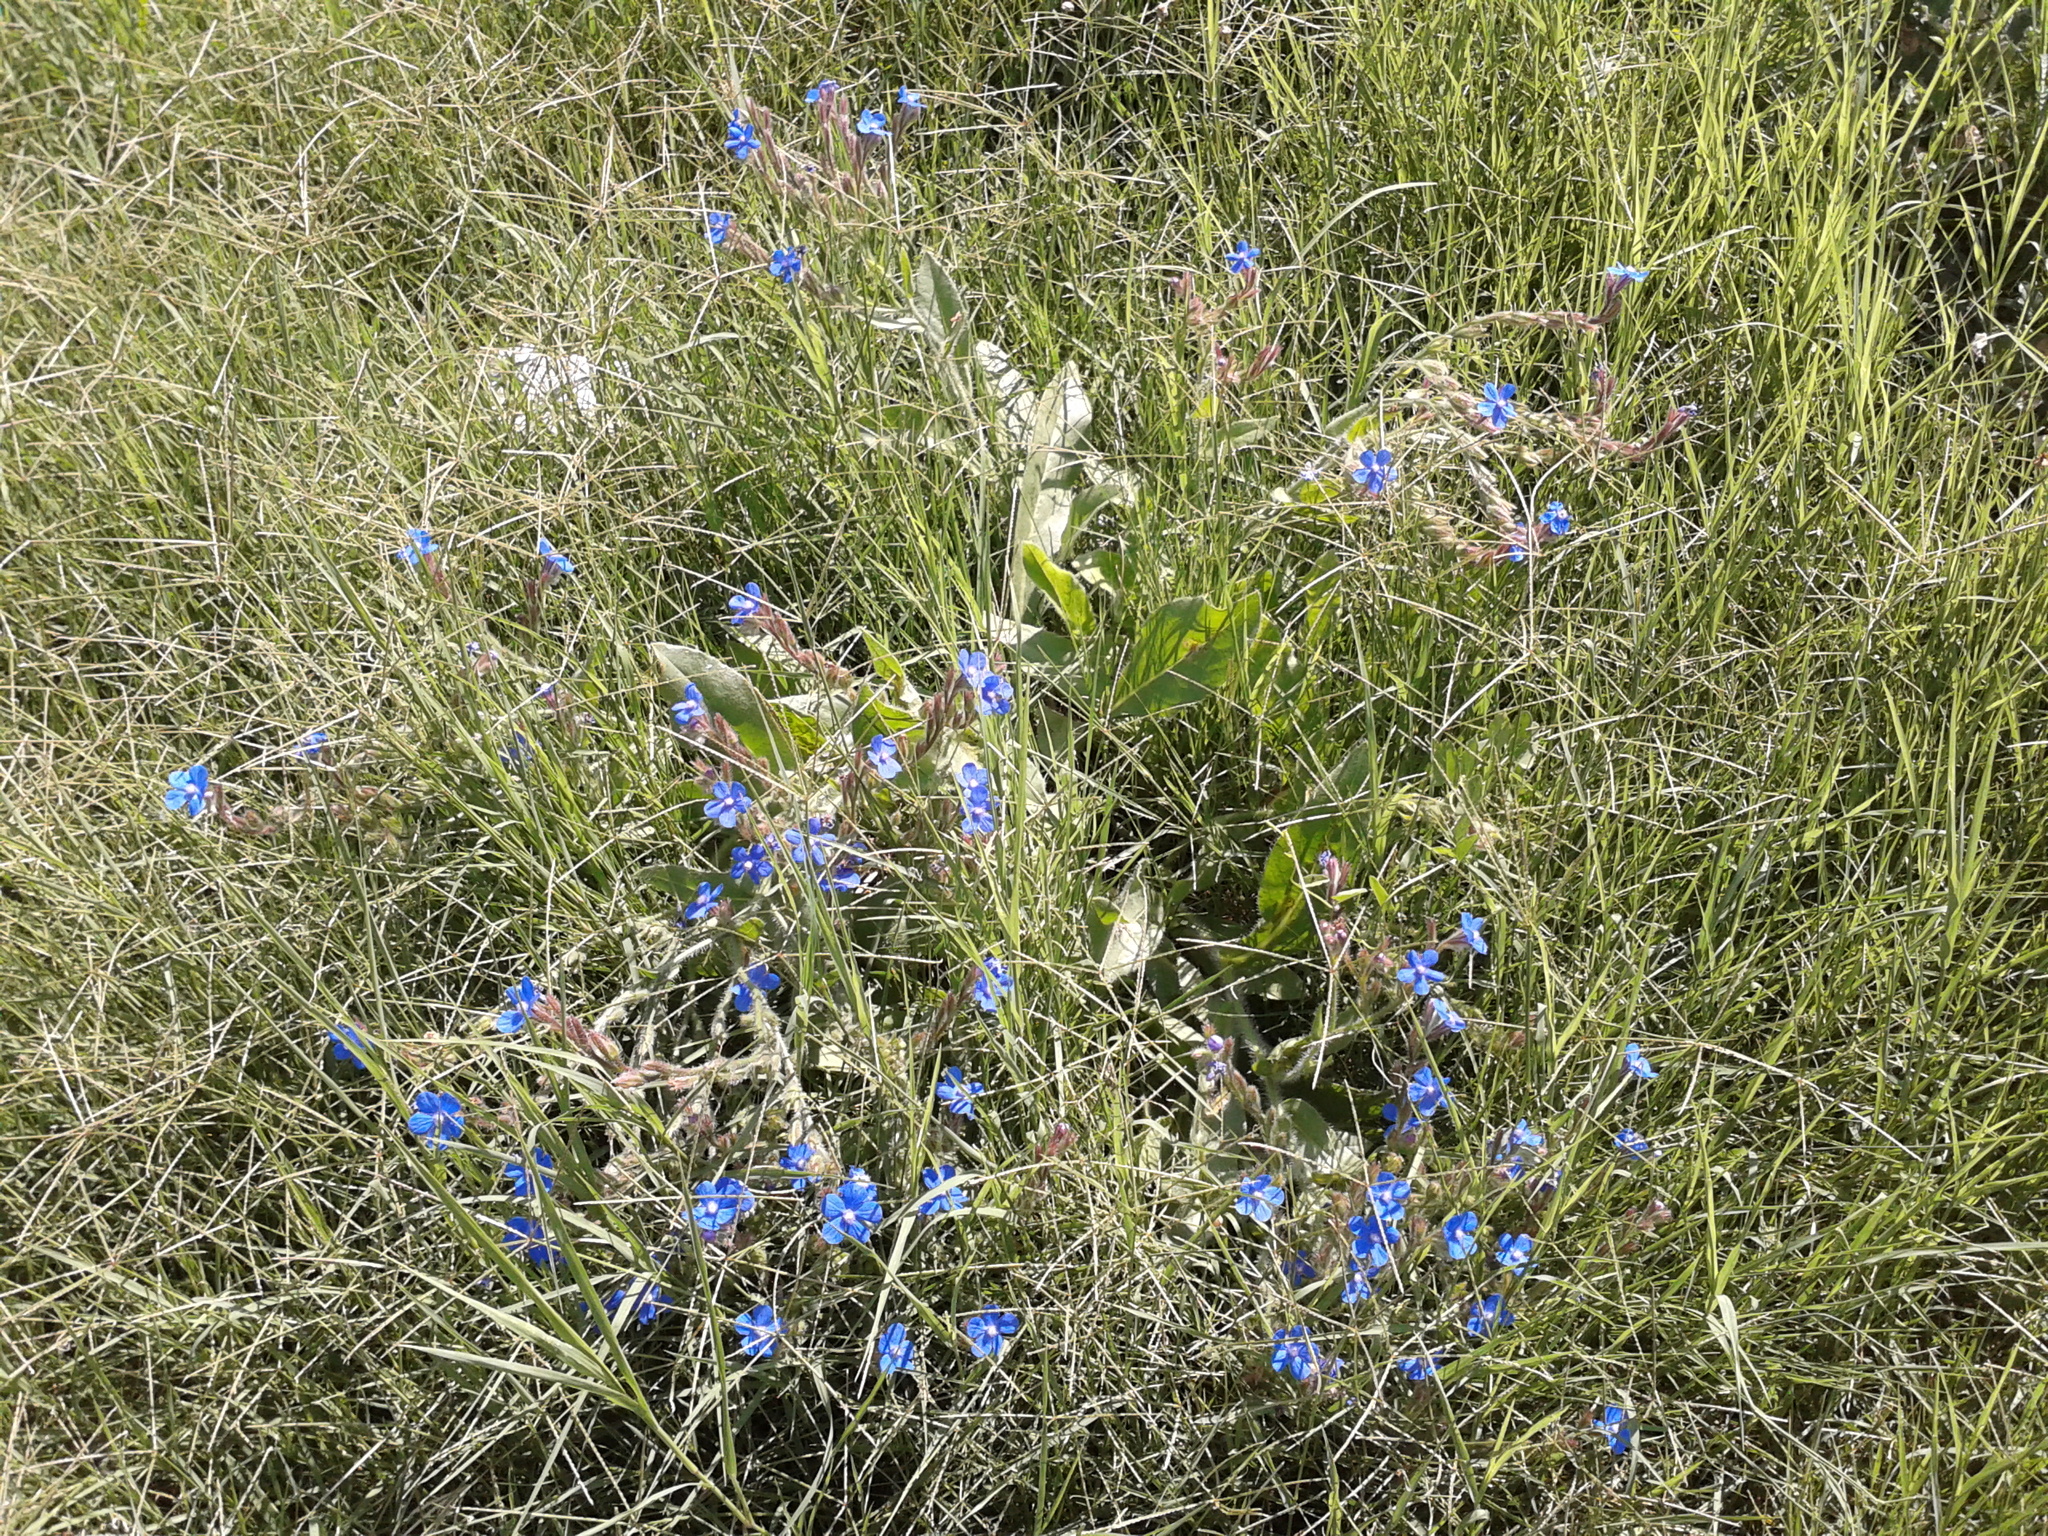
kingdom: Plantae
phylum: Tracheophyta
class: Magnoliopsida
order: Boraginales
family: Boraginaceae
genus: Anchusa
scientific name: Anchusa azurea
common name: Garden anchusa
